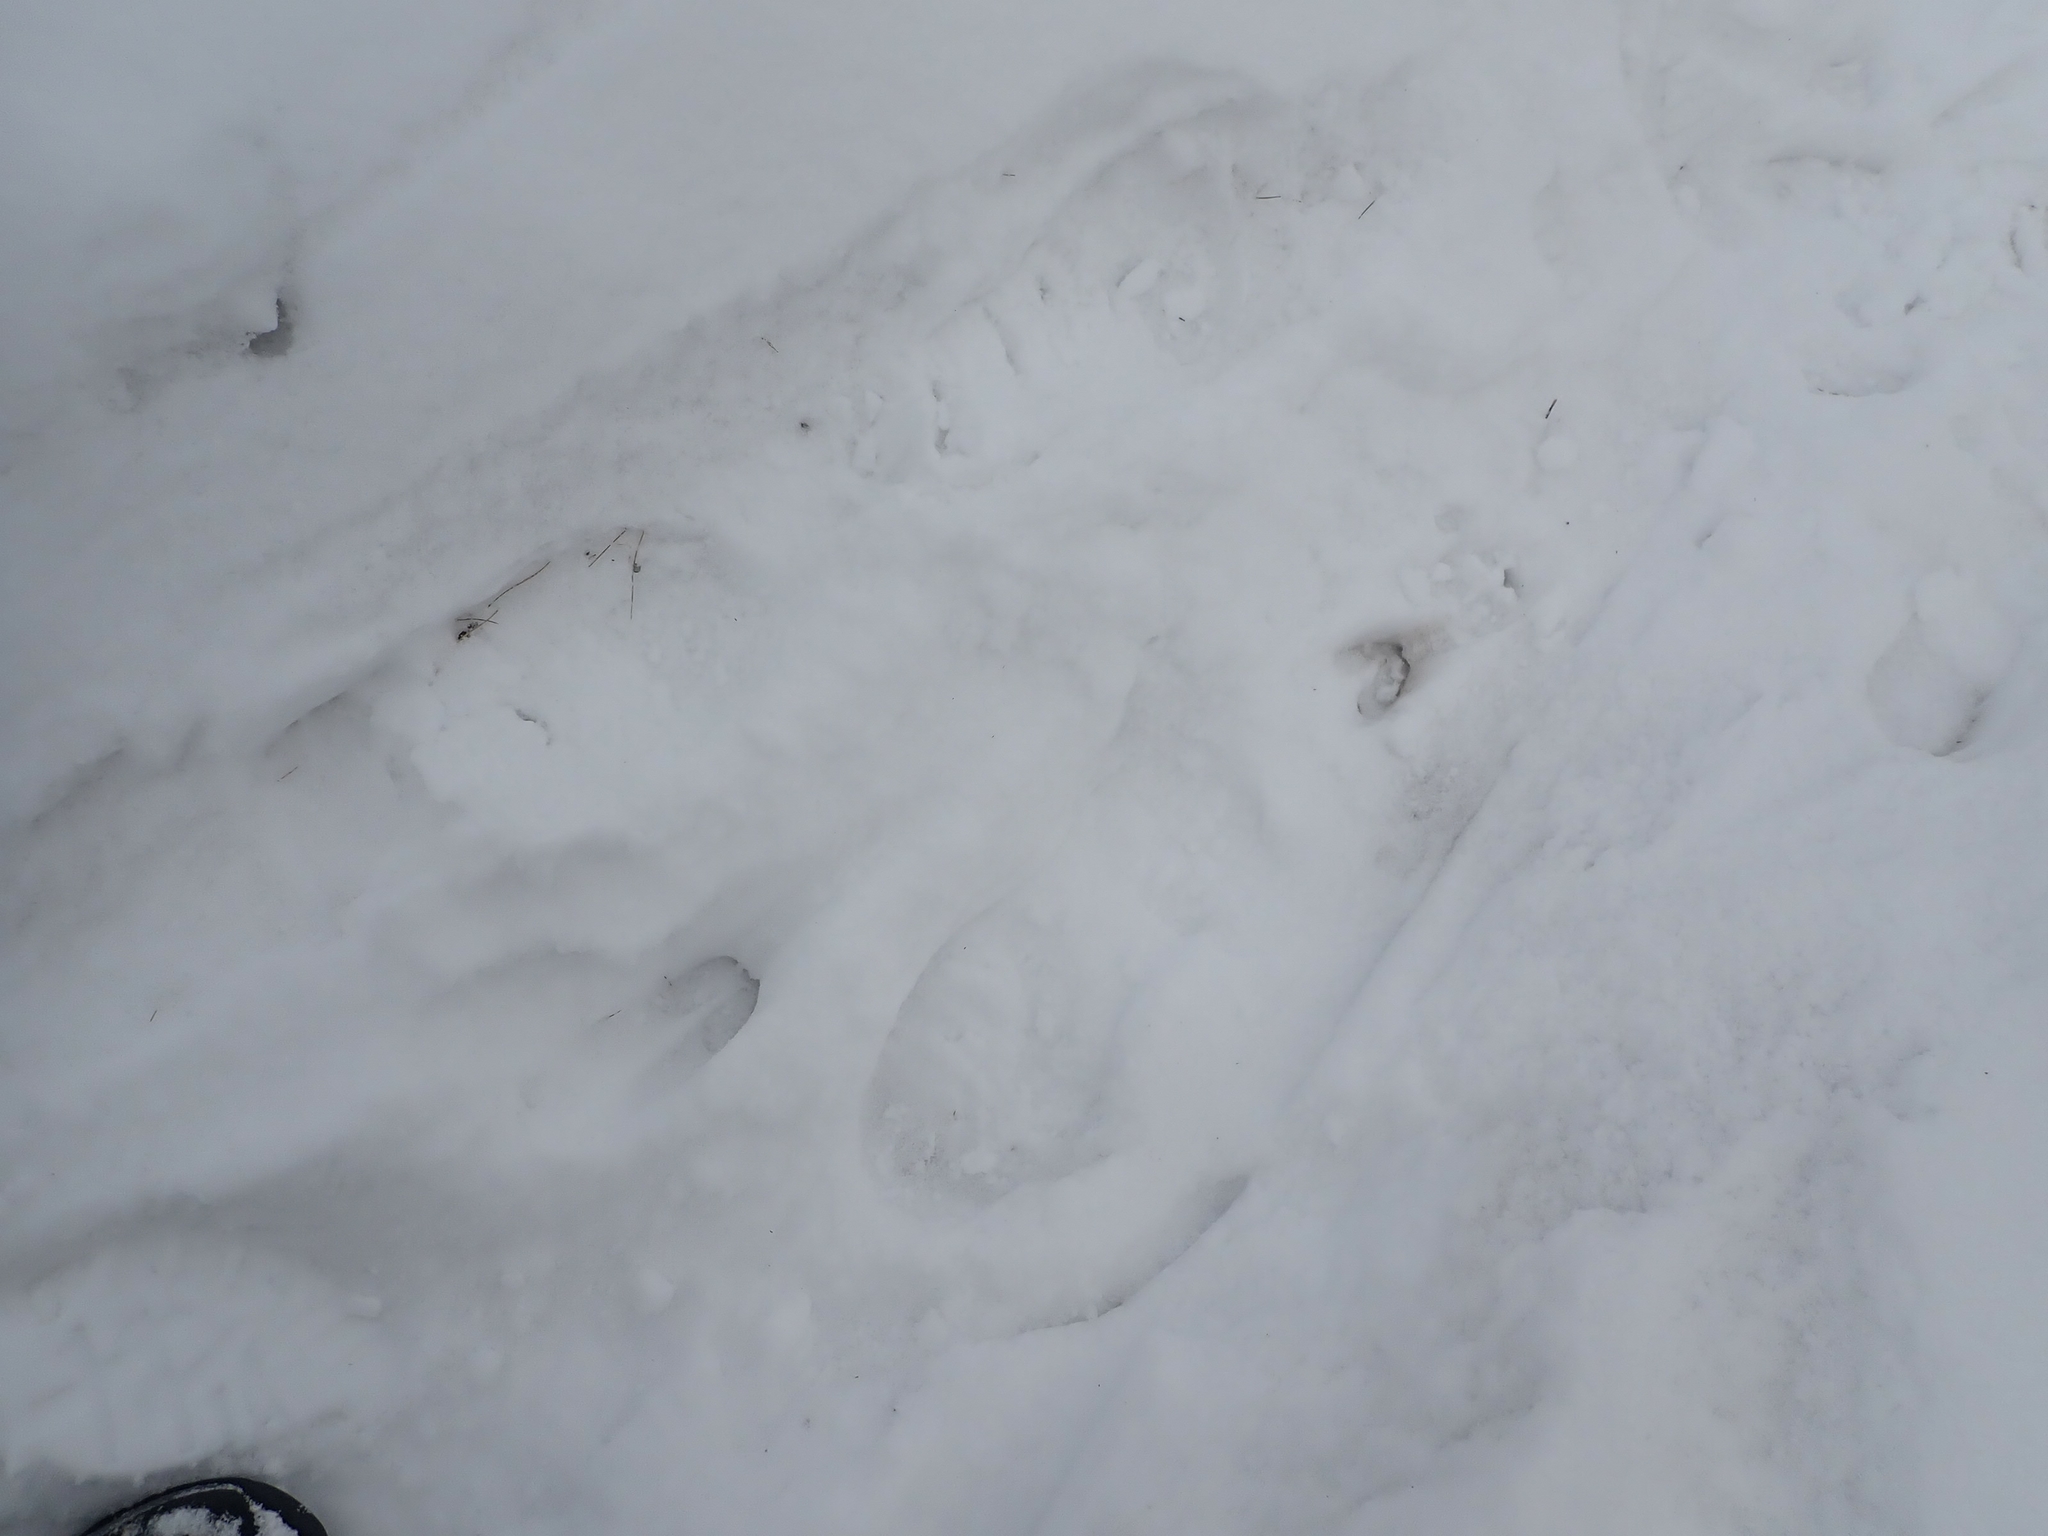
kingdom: Animalia
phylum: Chordata
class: Mammalia
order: Artiodactyla
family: Cervidae
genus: Odocoileus
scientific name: Odocoileus virginianus
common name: White-tailed deer
